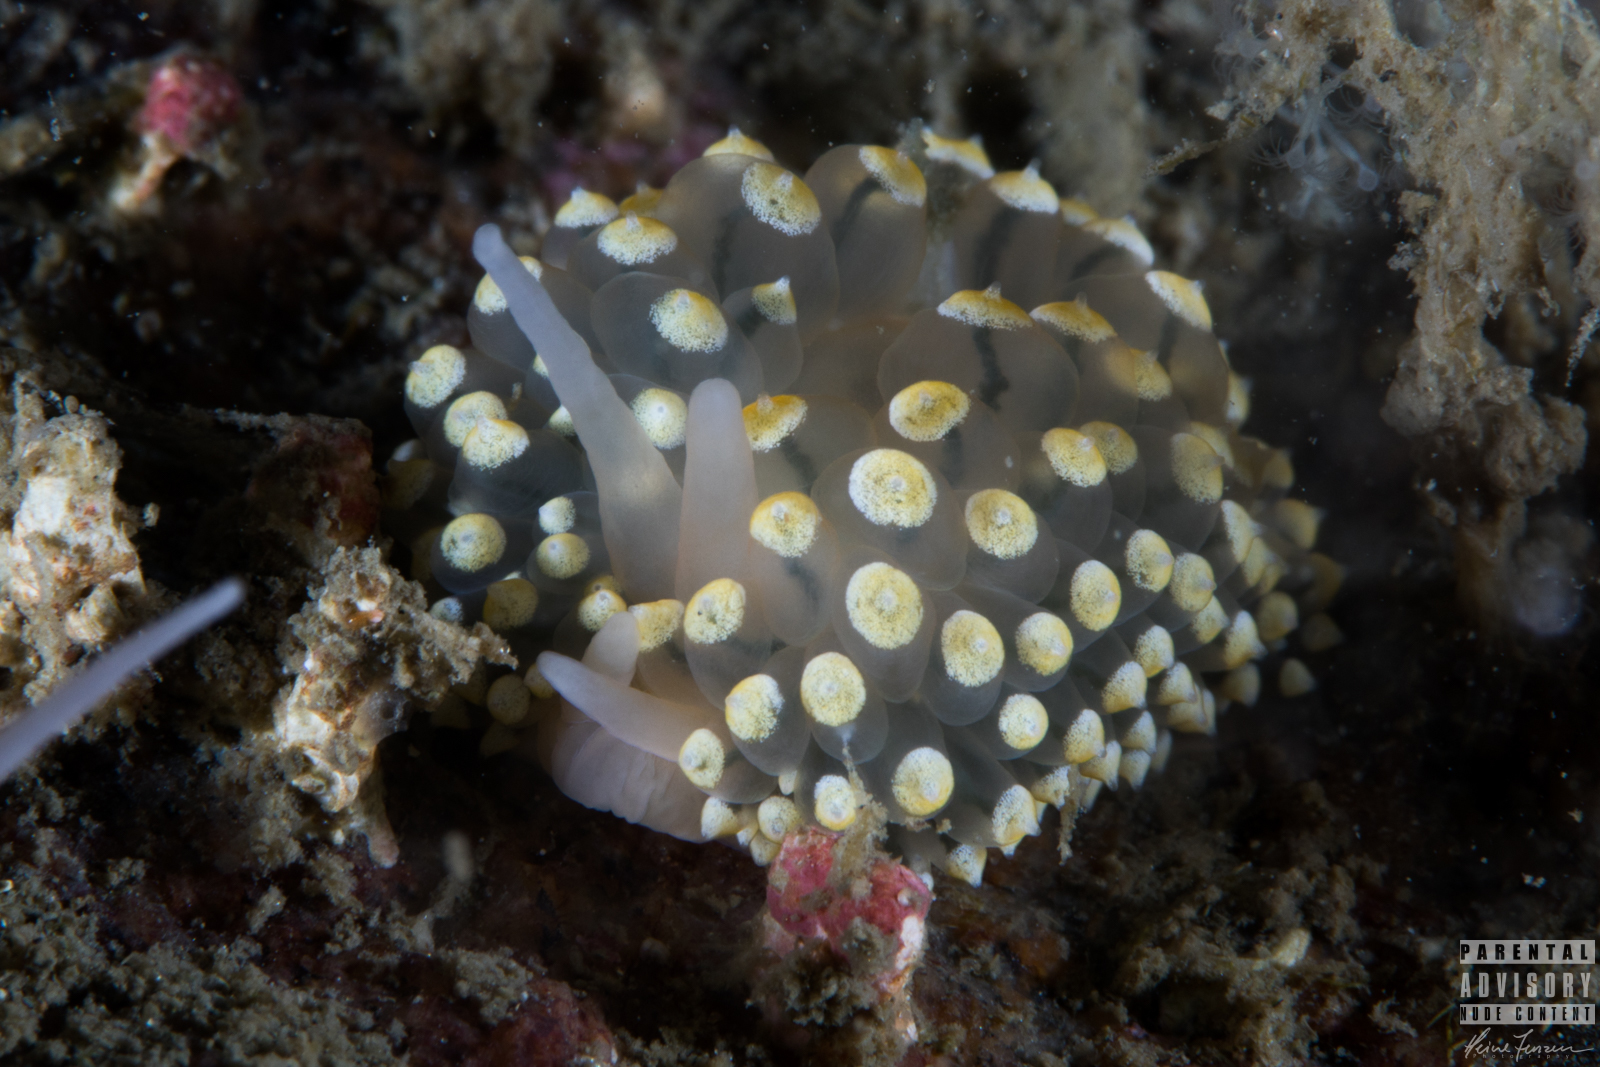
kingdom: Animalia
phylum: Mollusca
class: Gastropoda
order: Nudibranchia
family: Eubranchidae
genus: Eubranchus
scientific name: Eubranchus tricolor
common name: Painted balloon aeolis
